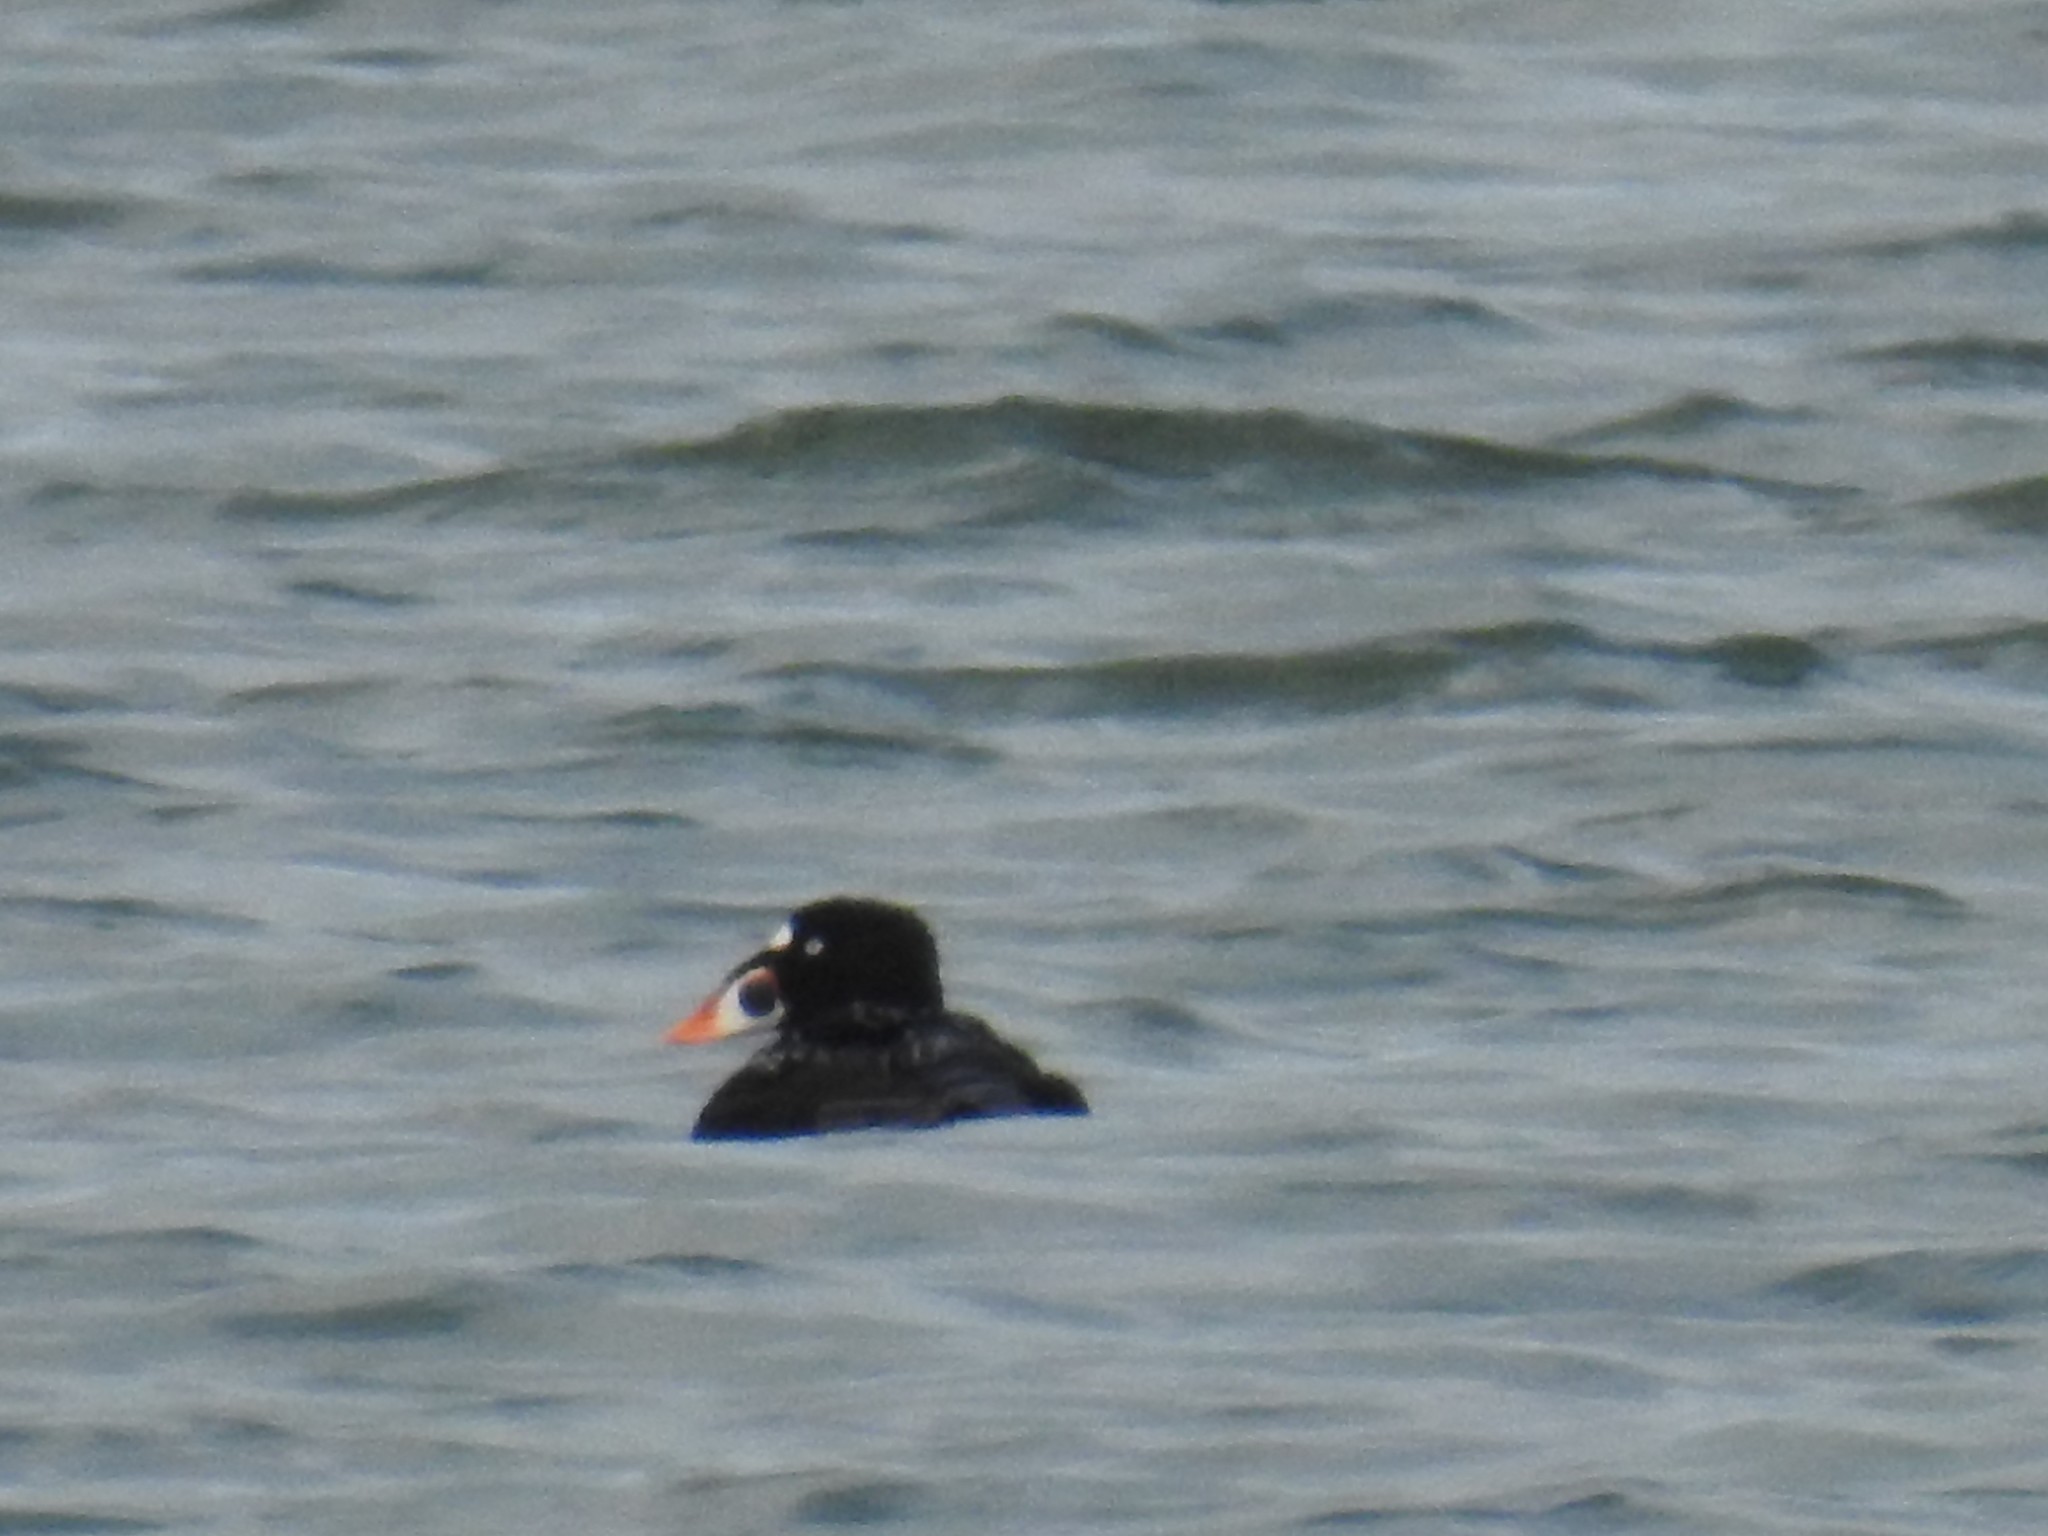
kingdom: Animalia
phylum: Chordata
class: Aves
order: Anseriformes
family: Anatidae
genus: Melanitta
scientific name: Melanitta perspicillata
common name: Surf scoter
